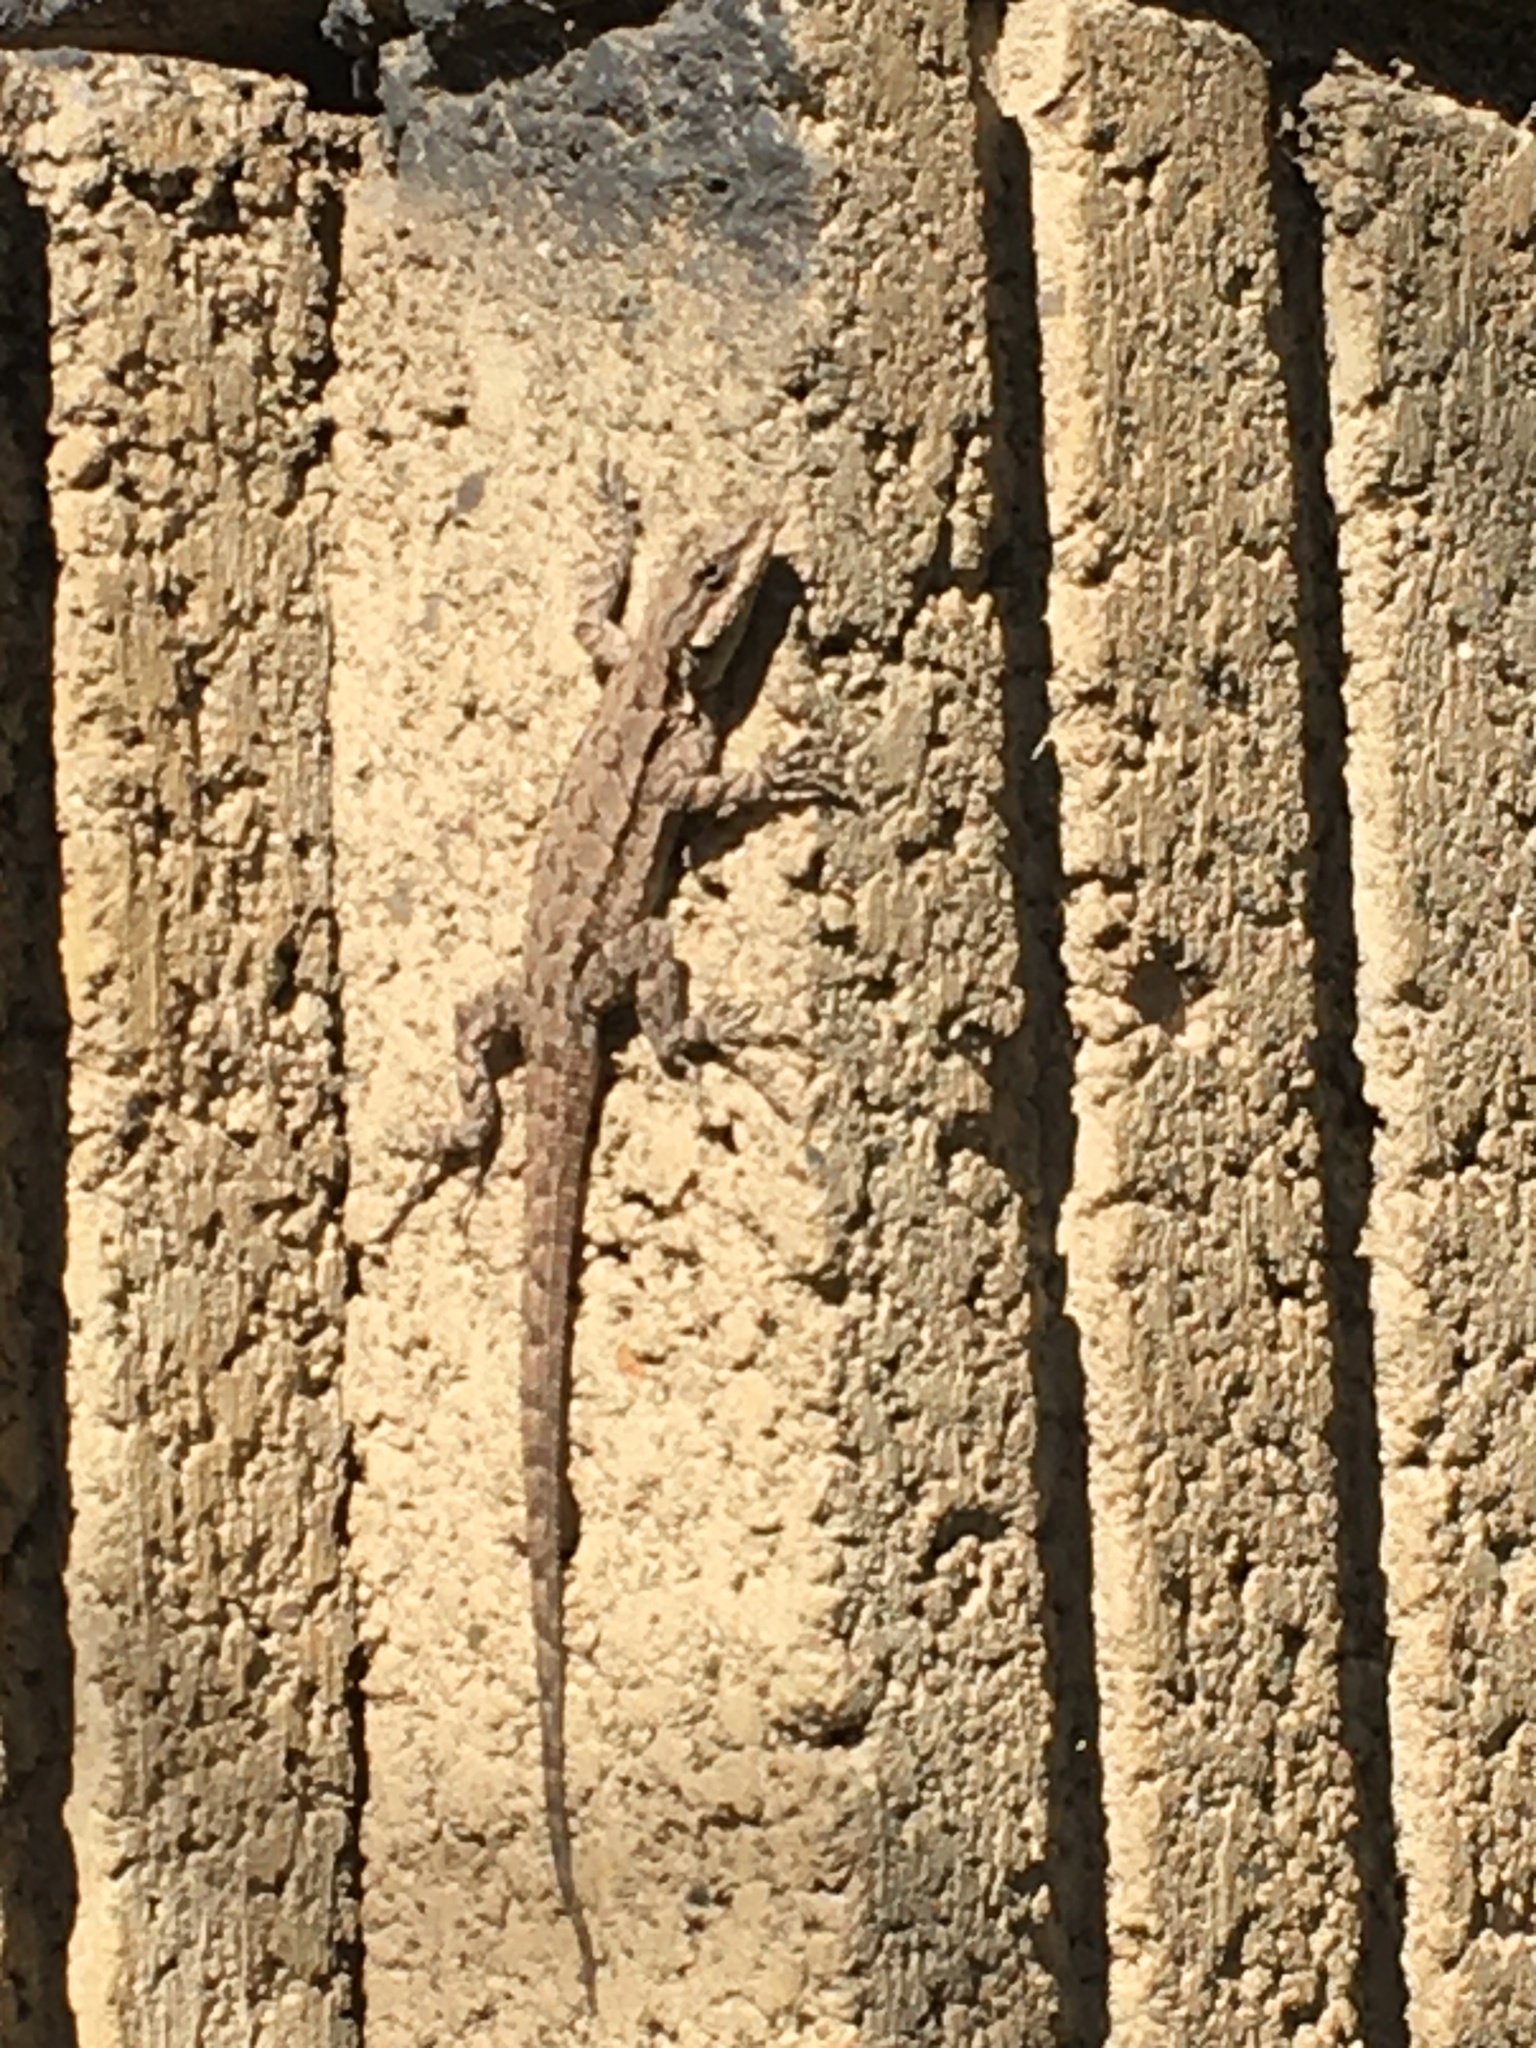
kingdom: Animalia
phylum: Chordata
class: Squamata
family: Phrynosomatidae
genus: Urosaurus
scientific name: Urosaurus ornatus
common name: Ornate tree lizard
